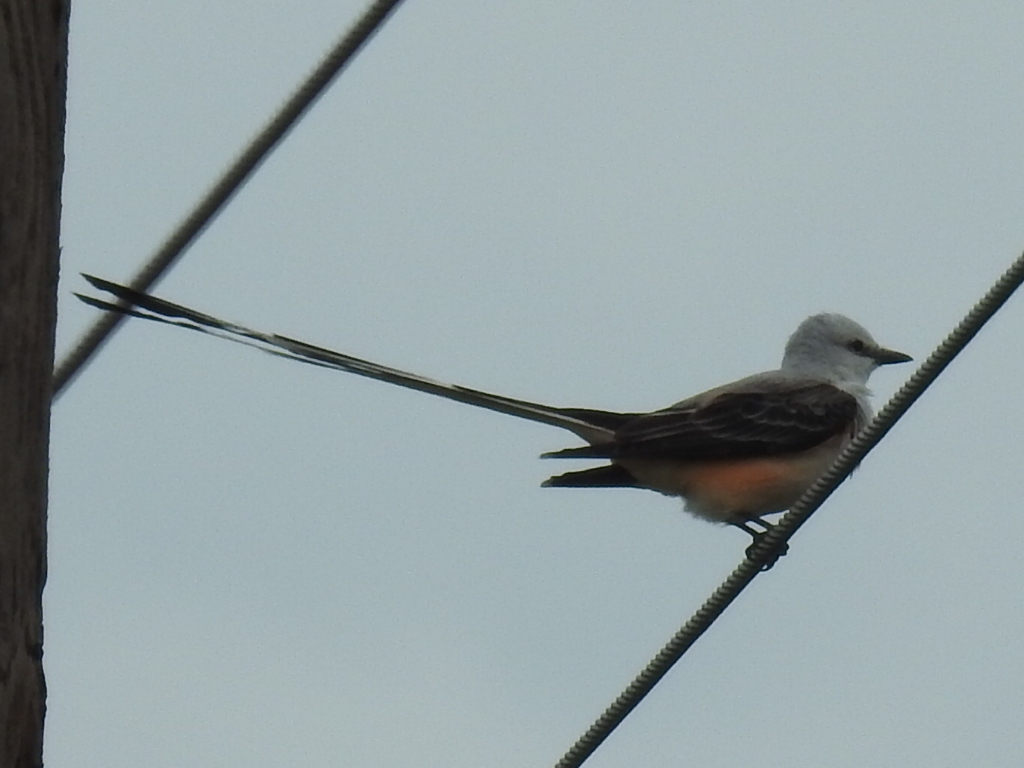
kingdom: Animalia
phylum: Chordata
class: Aves
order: Passeriformes
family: Tyrannidae
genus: Tyrannus
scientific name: Tyrannus forficatus
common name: Scissor-tailed flycatcher
